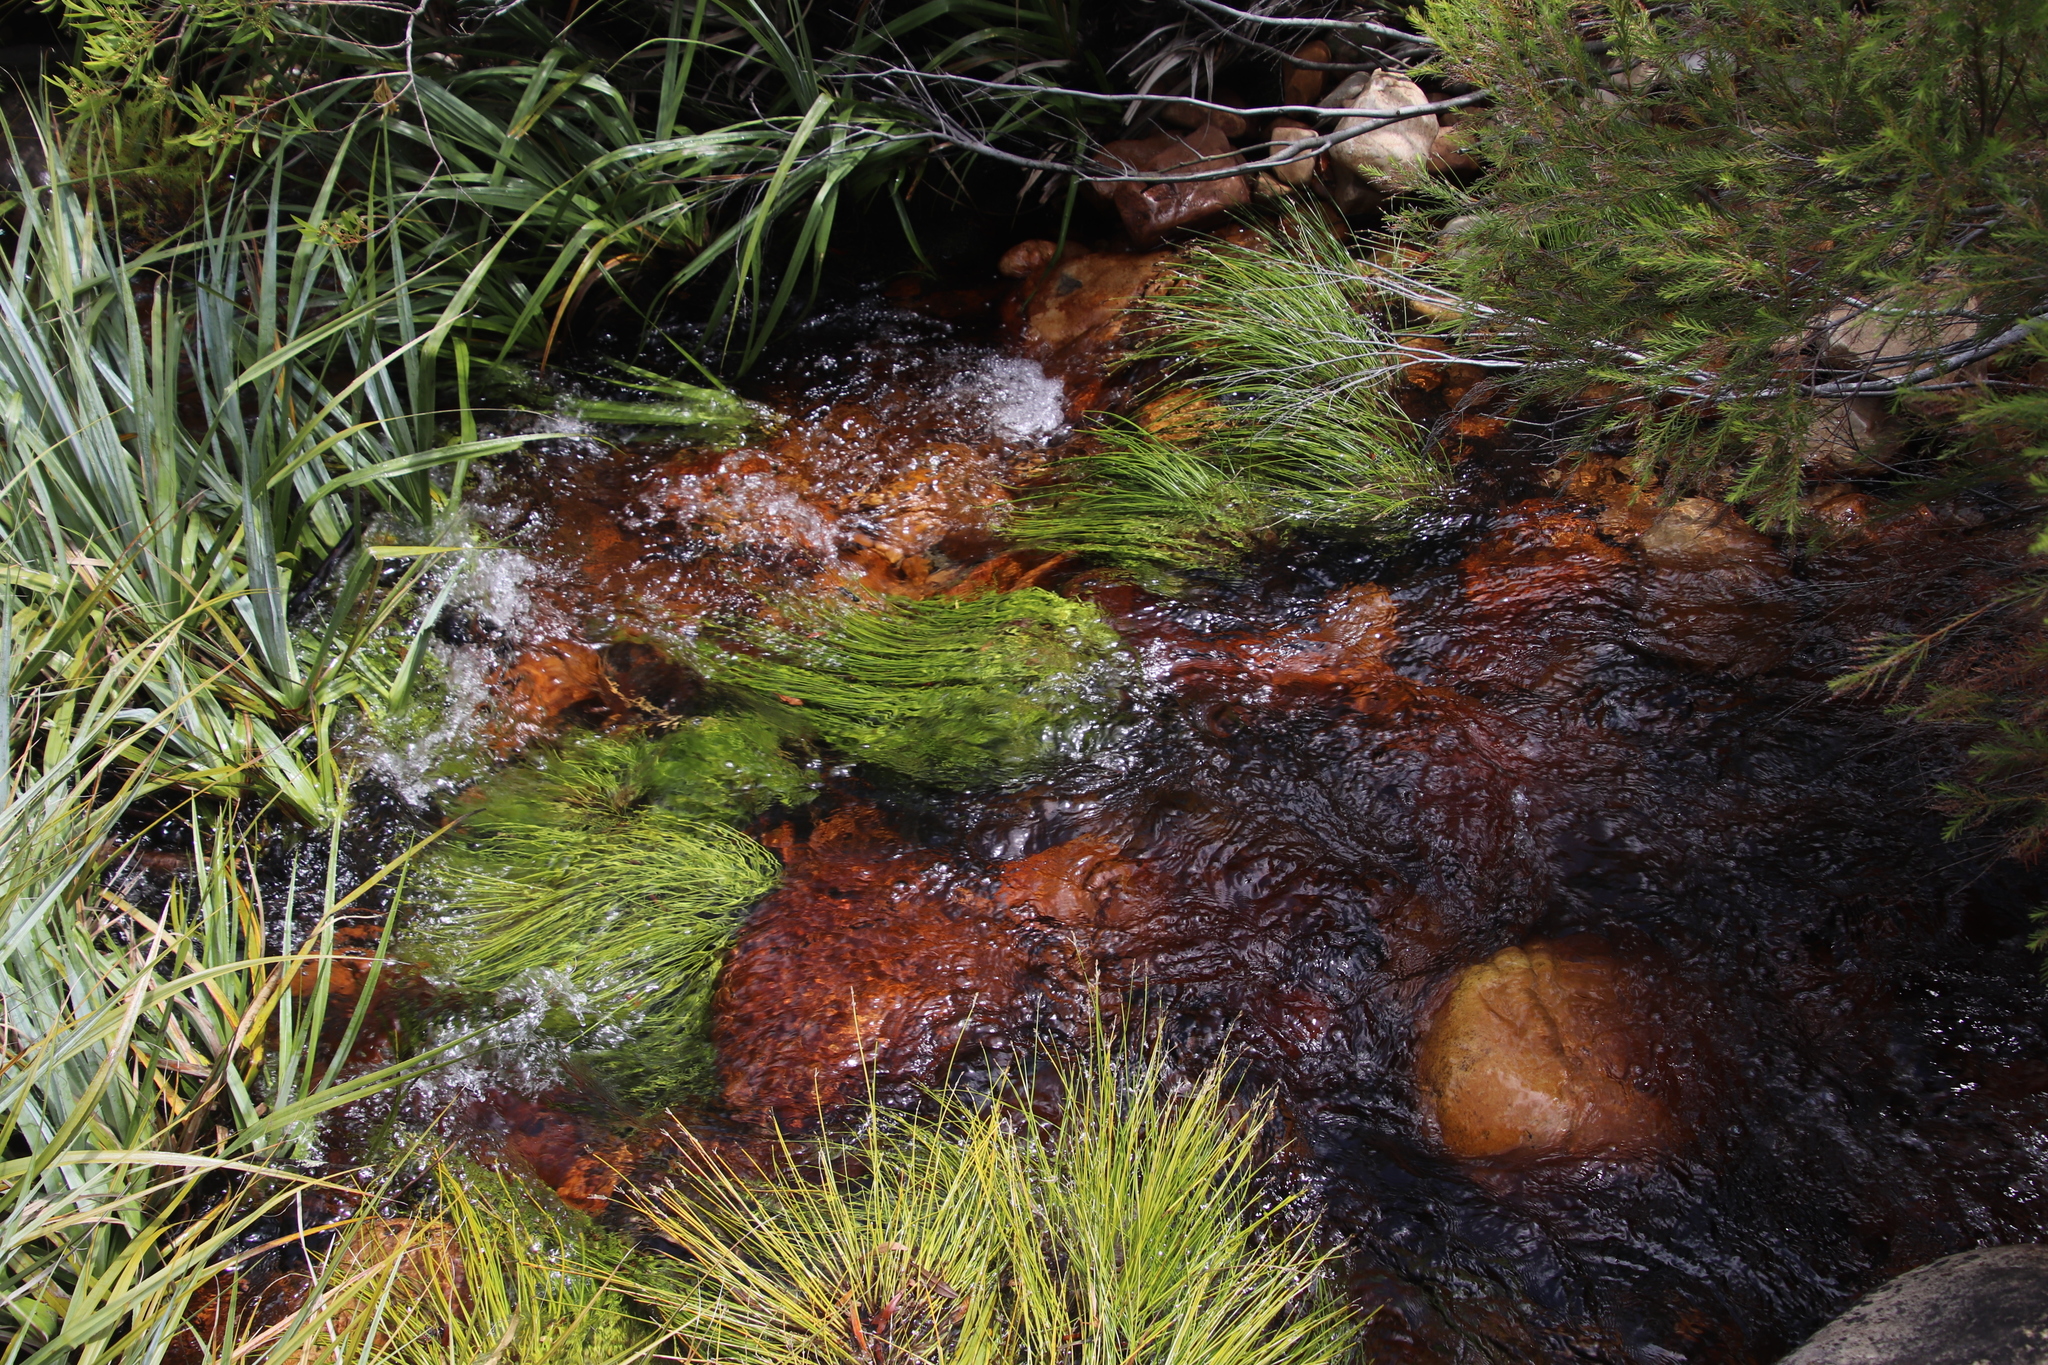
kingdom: Plantae
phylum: Tracheophyta
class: Liliopsida
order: Poales
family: Cyperaceae
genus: Isolepis
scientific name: Isolepis digitata
